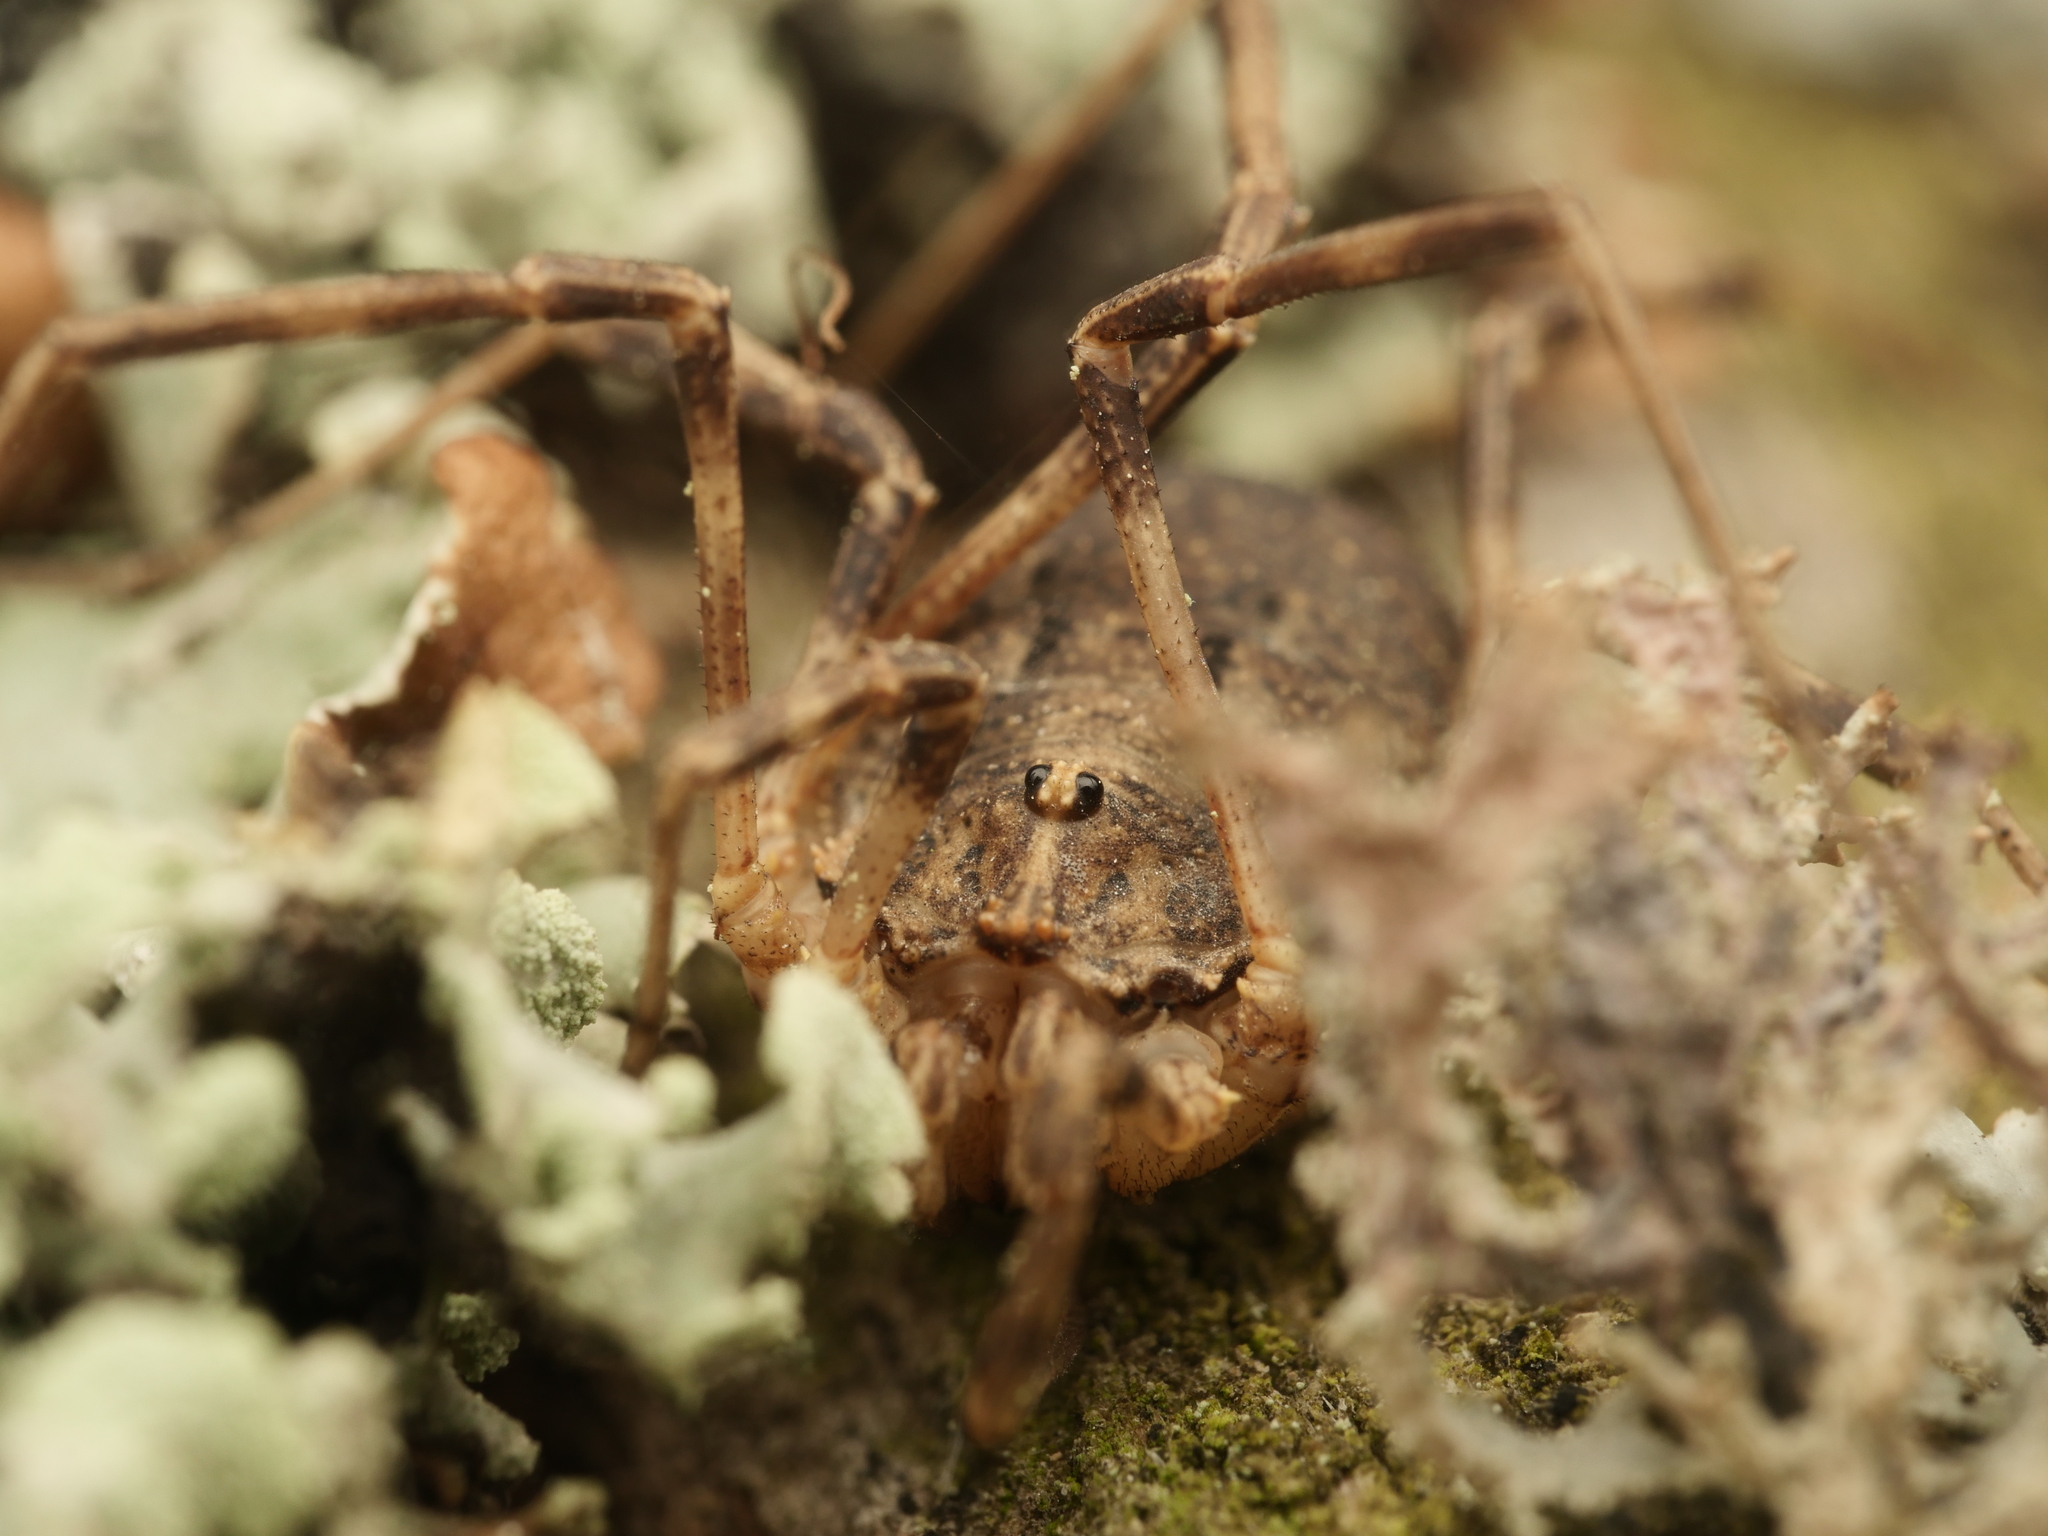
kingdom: Animalia
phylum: Arthropoda
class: Arachnida
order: Opiliones
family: Phalangiidae
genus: Odiellus
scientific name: Odiellus spinosus
